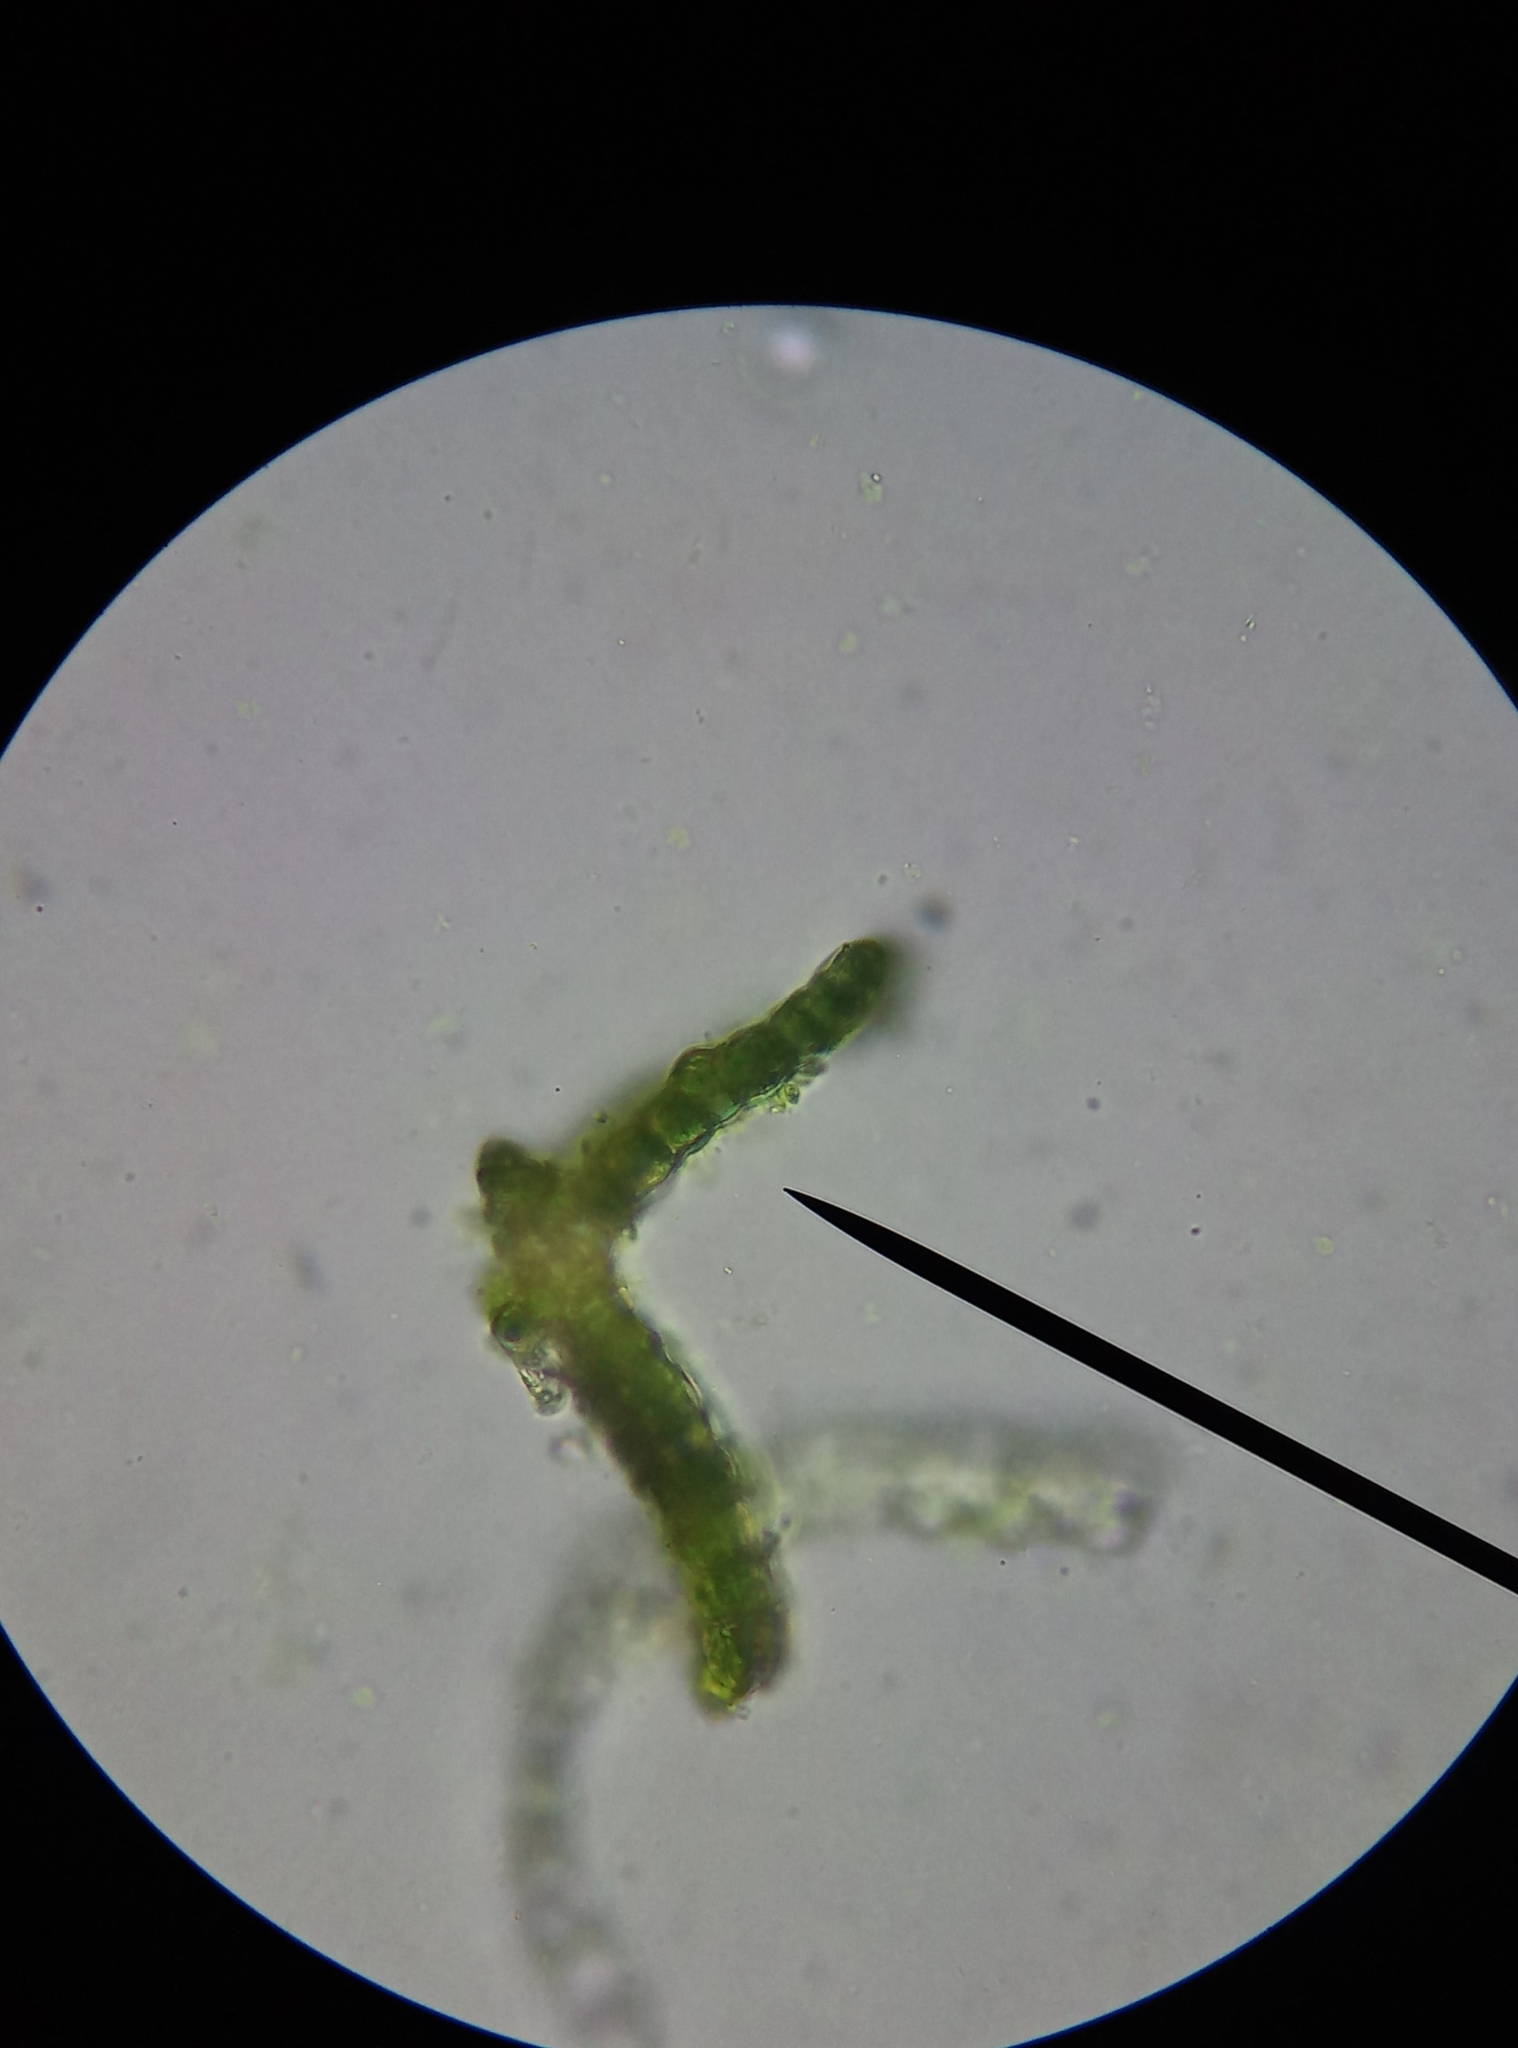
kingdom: Plantae
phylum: Bryophyta
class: Bryopsida
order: Dicranales
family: Dicranaceae
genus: Dicranum
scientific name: Dicranum scoparium
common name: Broom fork-moss
